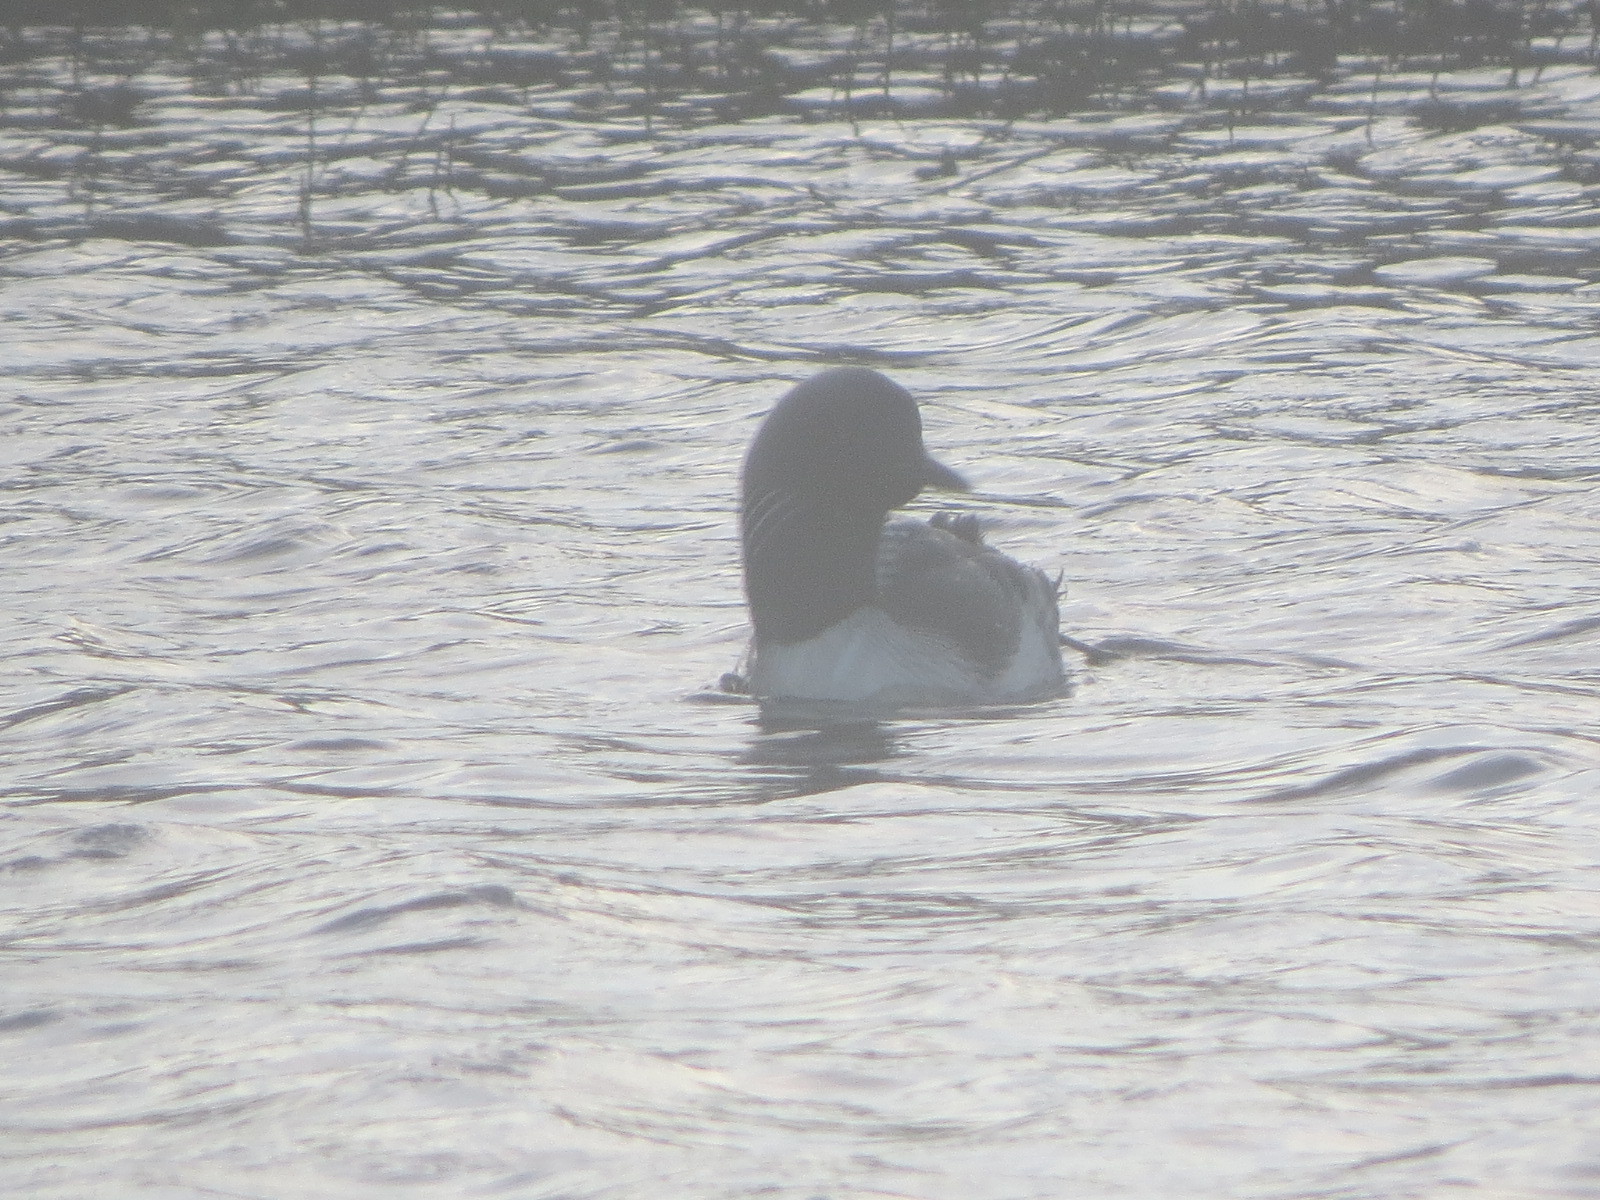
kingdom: Animalia
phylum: Chordata
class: Aves
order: Gaviiformes
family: Gaviidae
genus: Gavia
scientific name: Gavia pacifica
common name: Pacific loon
